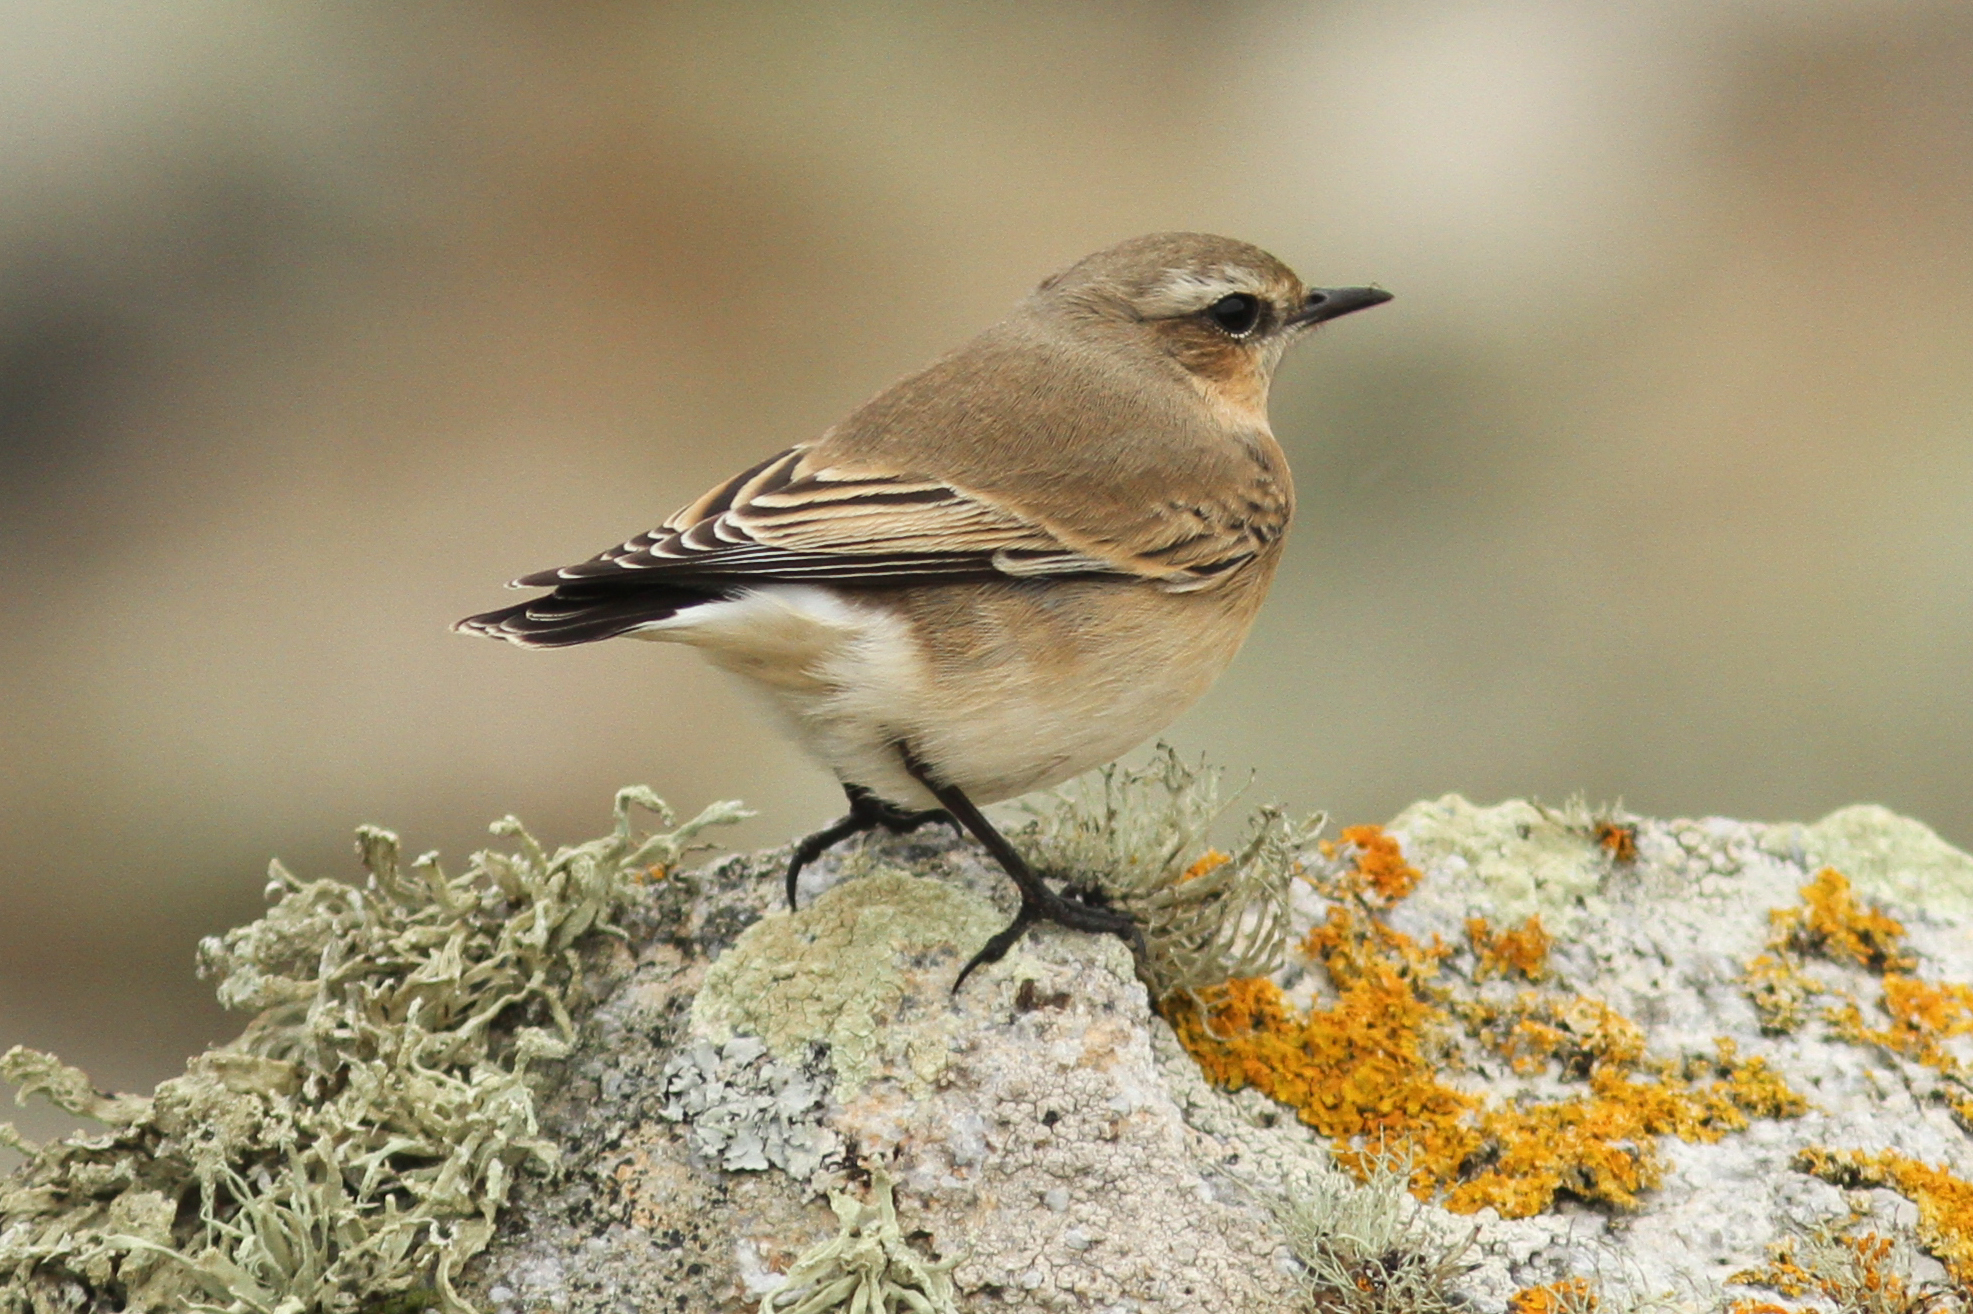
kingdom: Animalia
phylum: Chordata
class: Aves
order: Passeriformes
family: Muscicapidae
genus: Oenanthe
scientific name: Oenanthe oenanthe
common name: Northern wheatear
